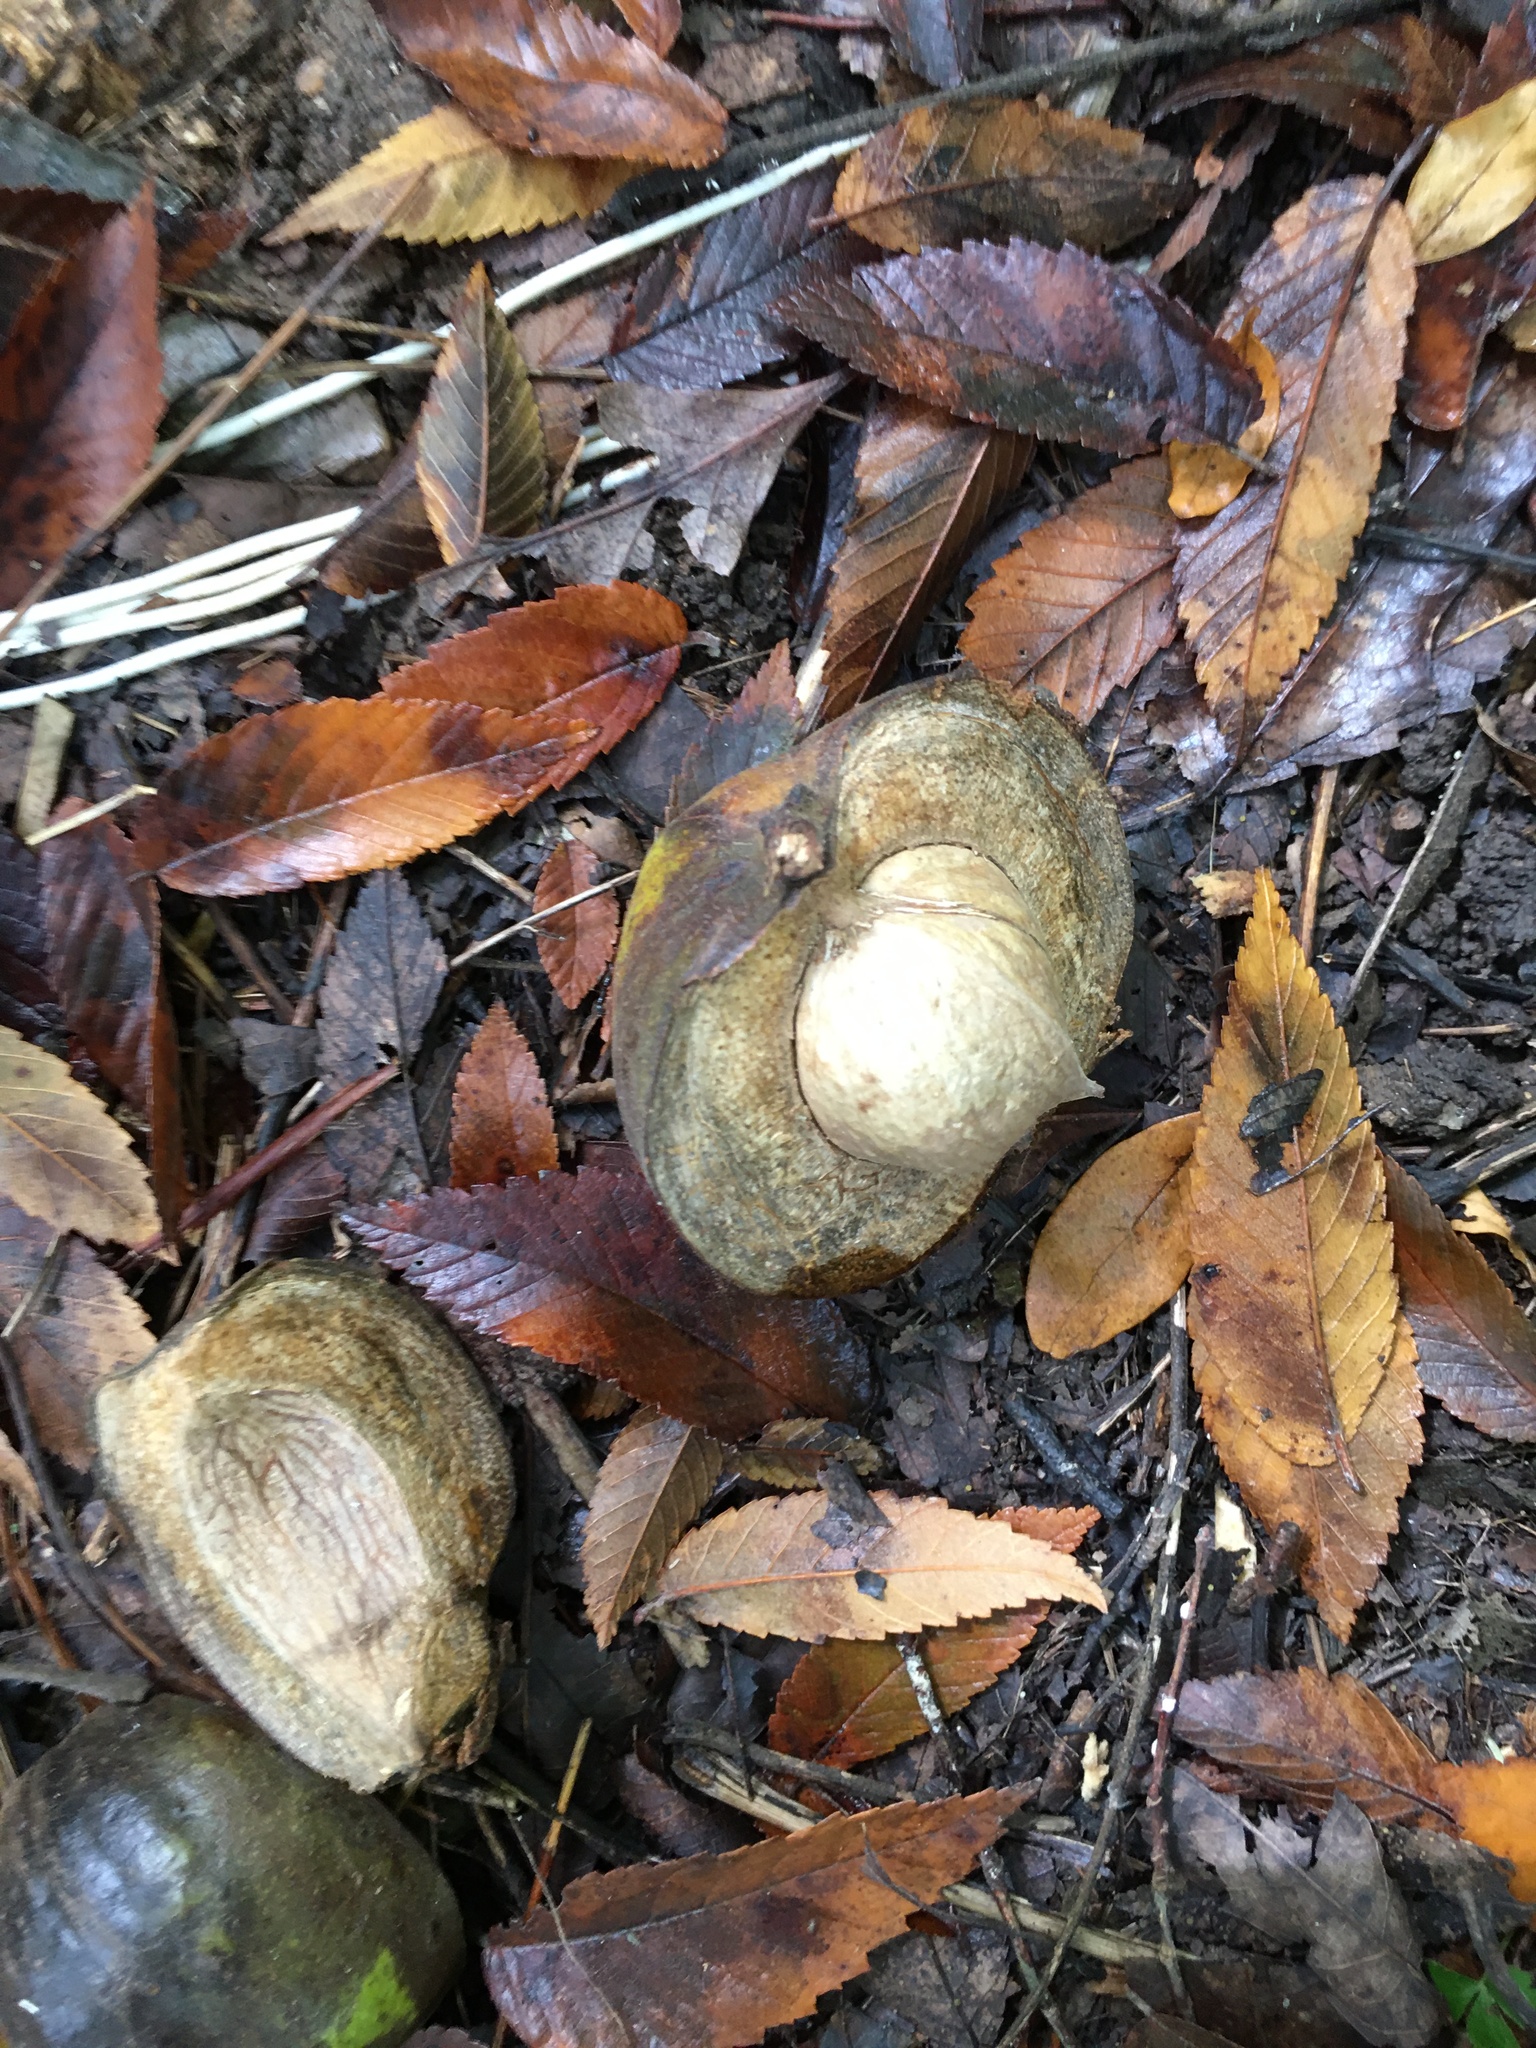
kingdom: Plantae
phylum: Tracheophyta
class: Magnoliopsida
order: Fagales
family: Juglandaceae
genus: Carya
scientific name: Carya ovata
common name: Shagbark hickory
